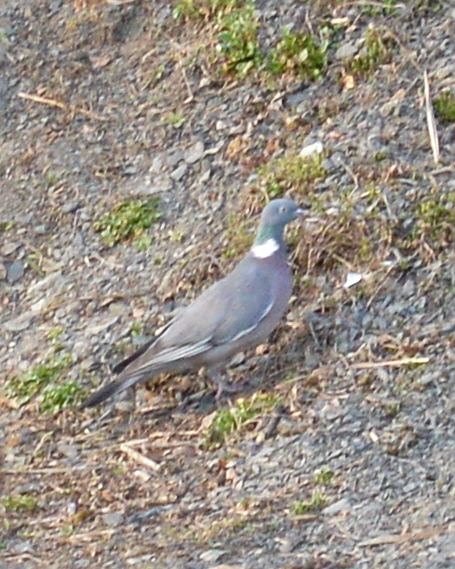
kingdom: Animalia
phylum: Chordata
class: Aves
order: Columbiformes
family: Columbidae
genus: Columba
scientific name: Columba palumbus
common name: Common wood pigeon
